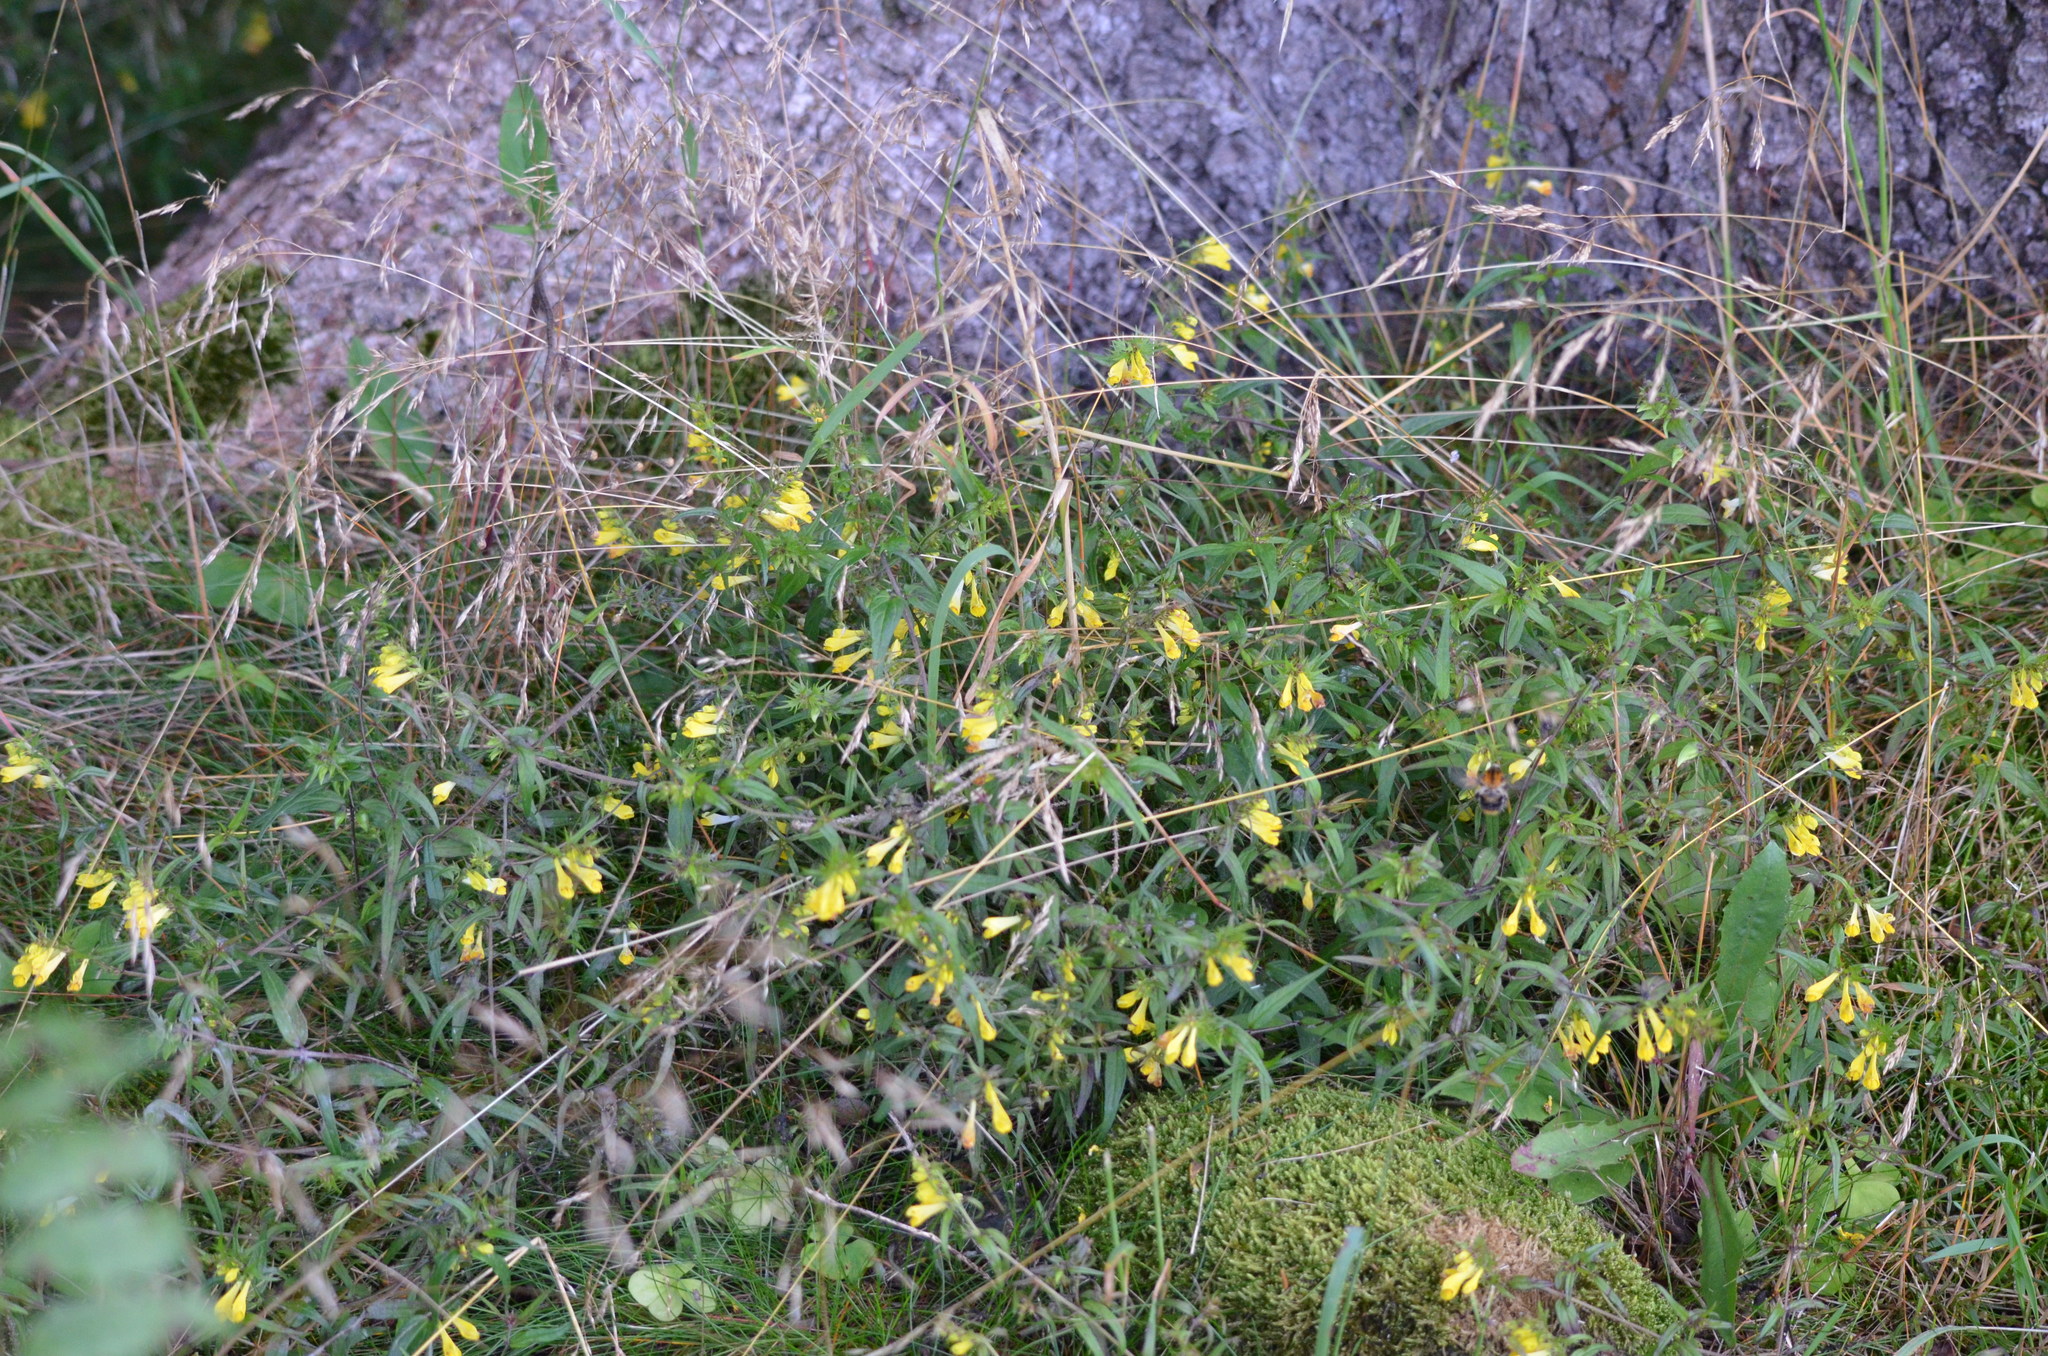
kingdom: Plantae
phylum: Tracheophyta
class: Magnoliopsida
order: Lamiales
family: Orobanchaceae
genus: Melampyrum
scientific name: Melampyrum pratense
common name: Common cow-wheat
